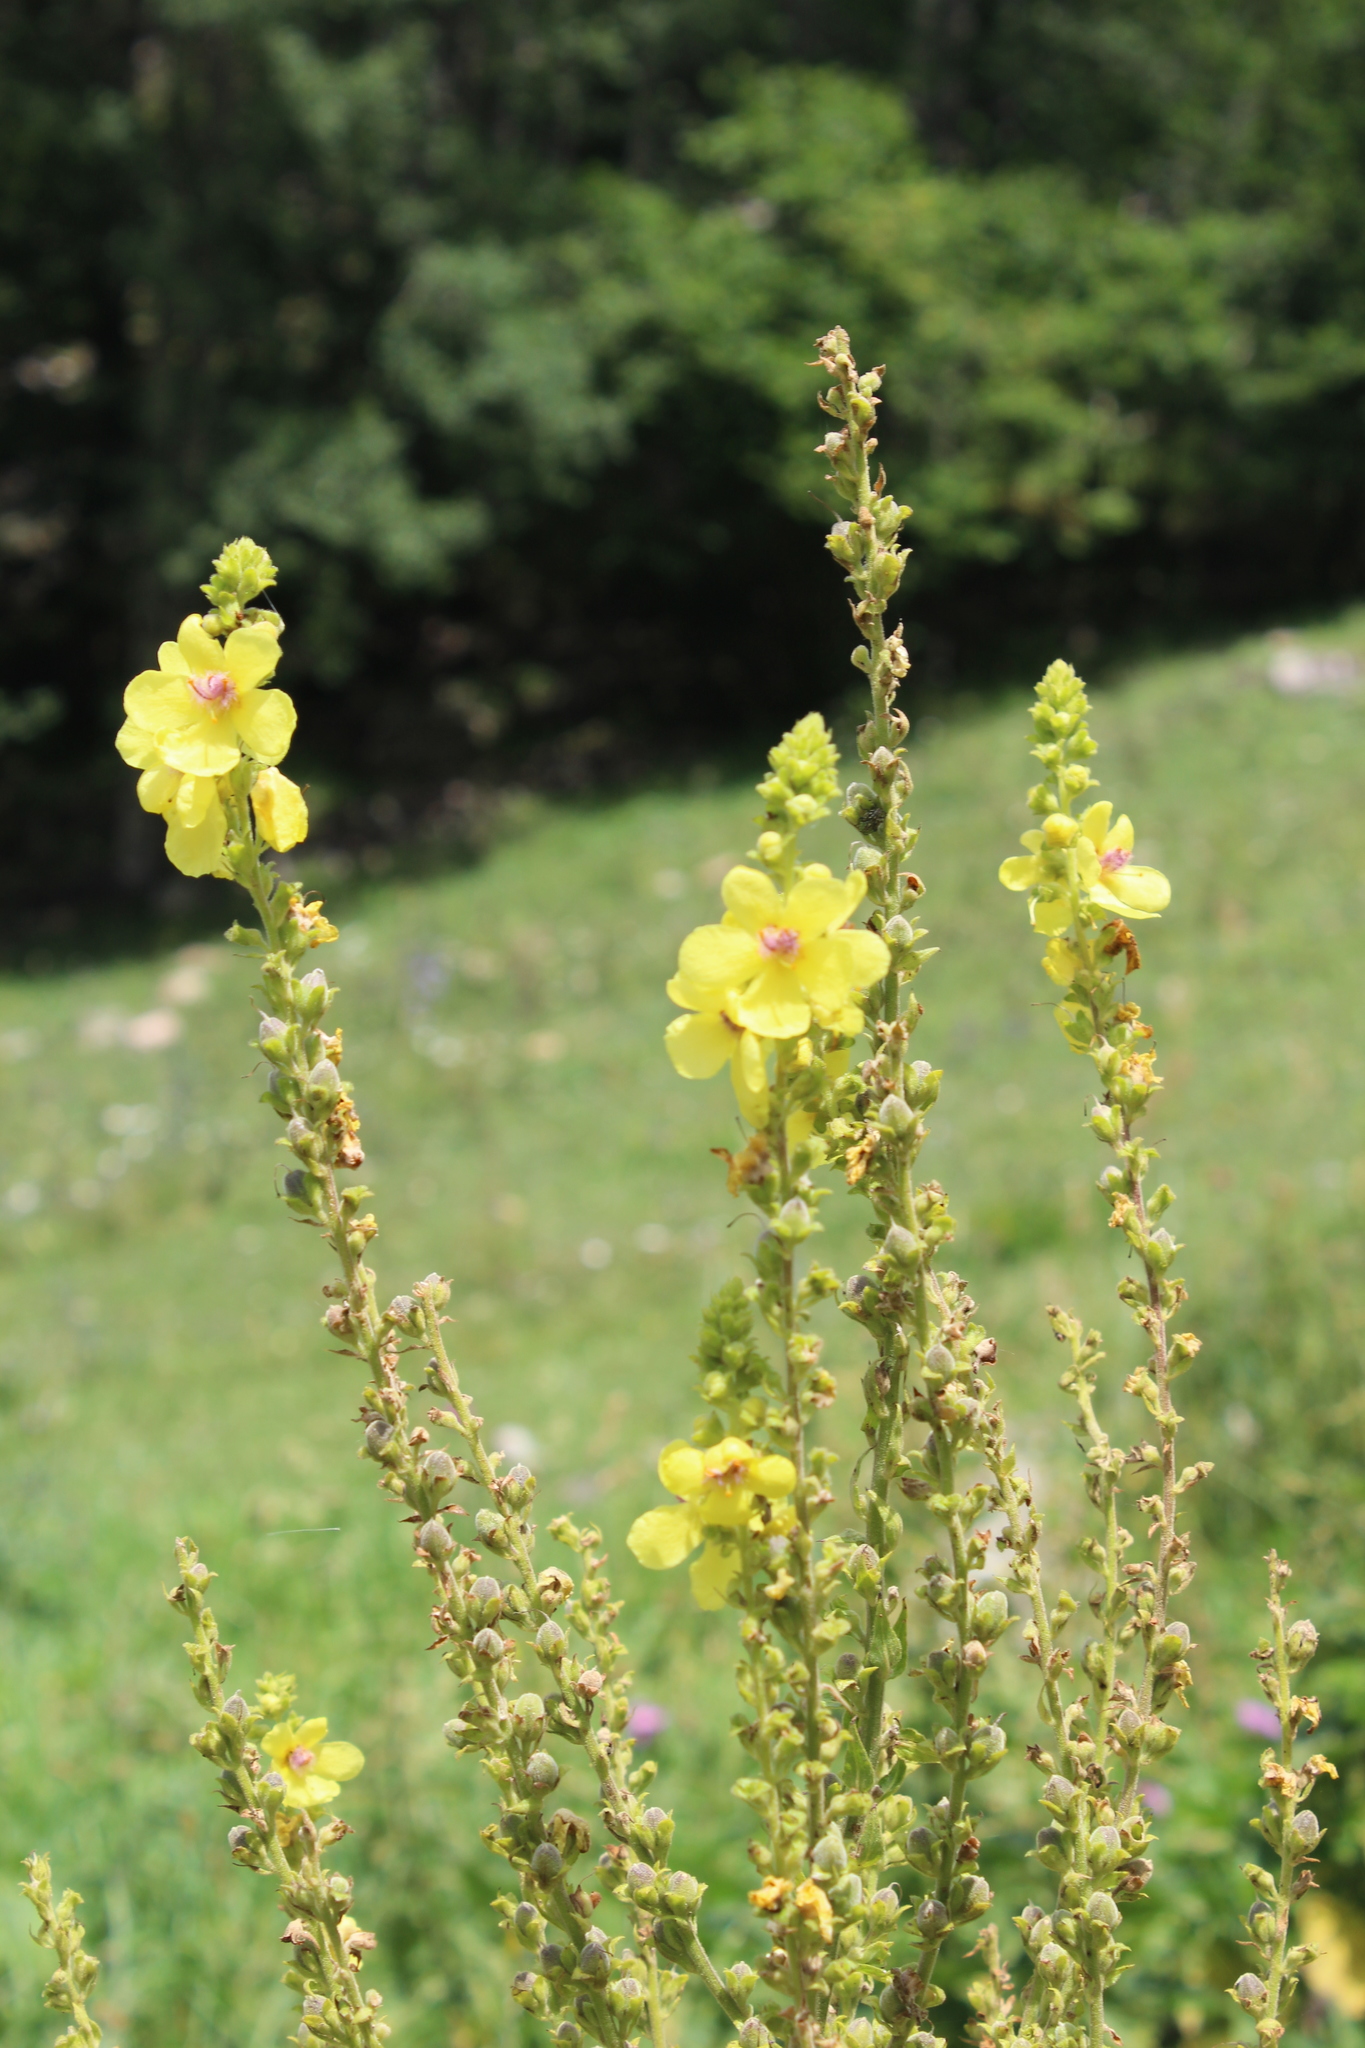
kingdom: Plantae
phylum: Tracheophyta
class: Magnoliopsida
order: Lamiales
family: Scrophulariaceae
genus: Verbascum
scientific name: Verbascum pyramidatum
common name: Caucasian mullein
